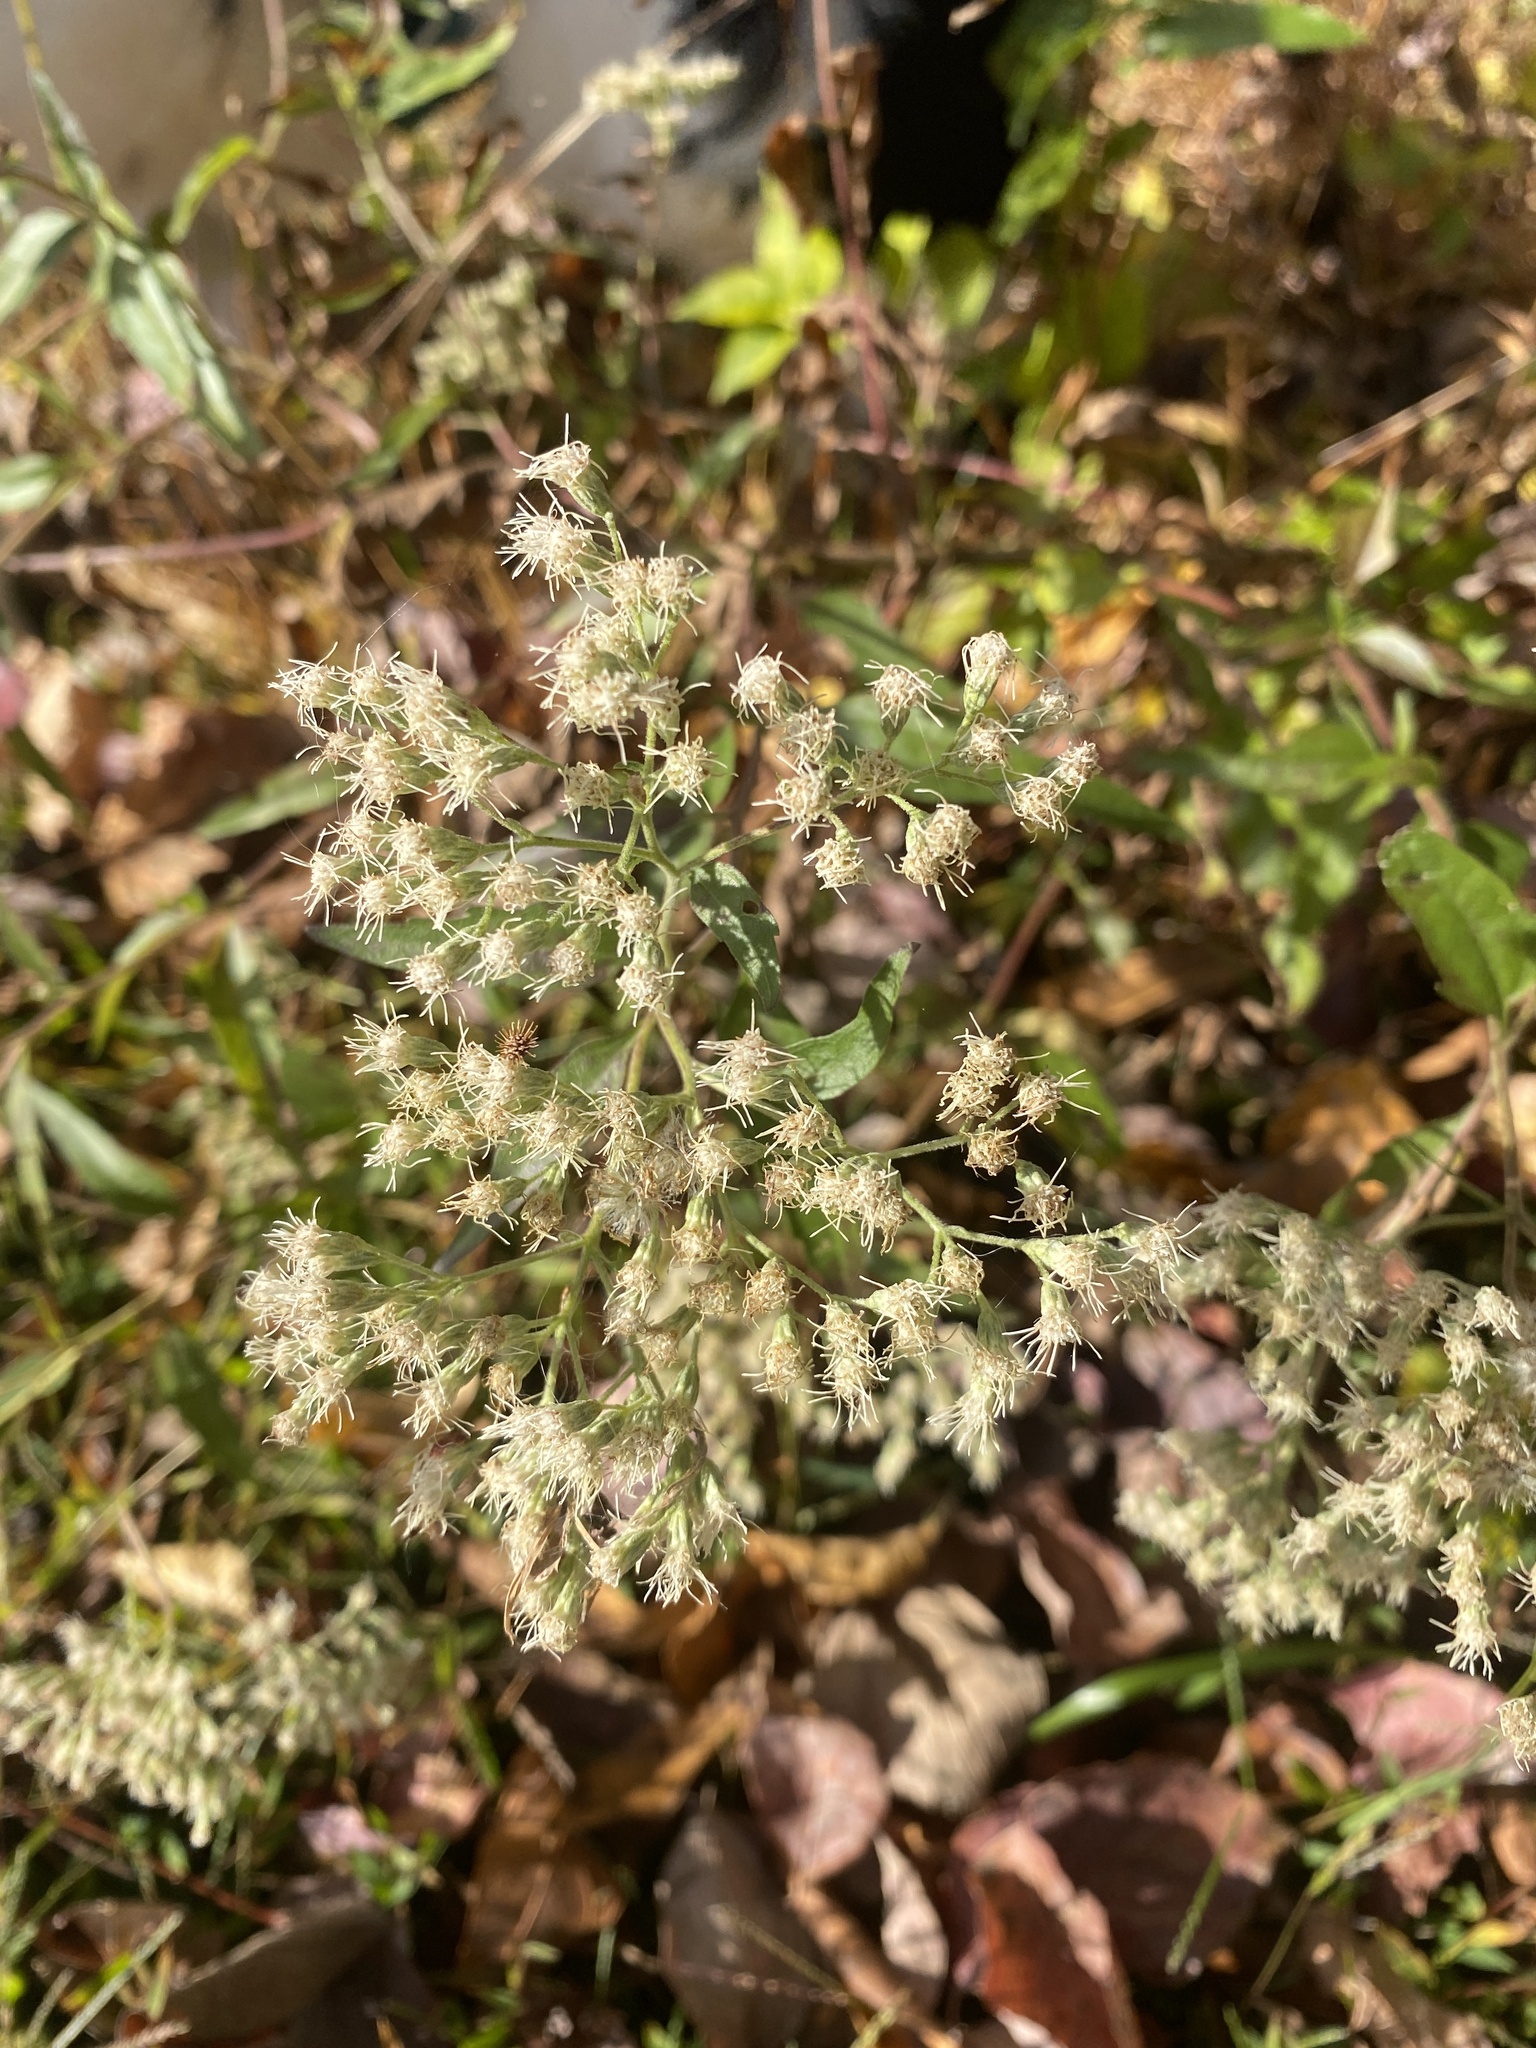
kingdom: Plantae
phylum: Tracheophyta
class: Magnoliopsida
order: Asterales
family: Asteraceae
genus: Eupatorium
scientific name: Eupatorium serotinum
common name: Late boneset
